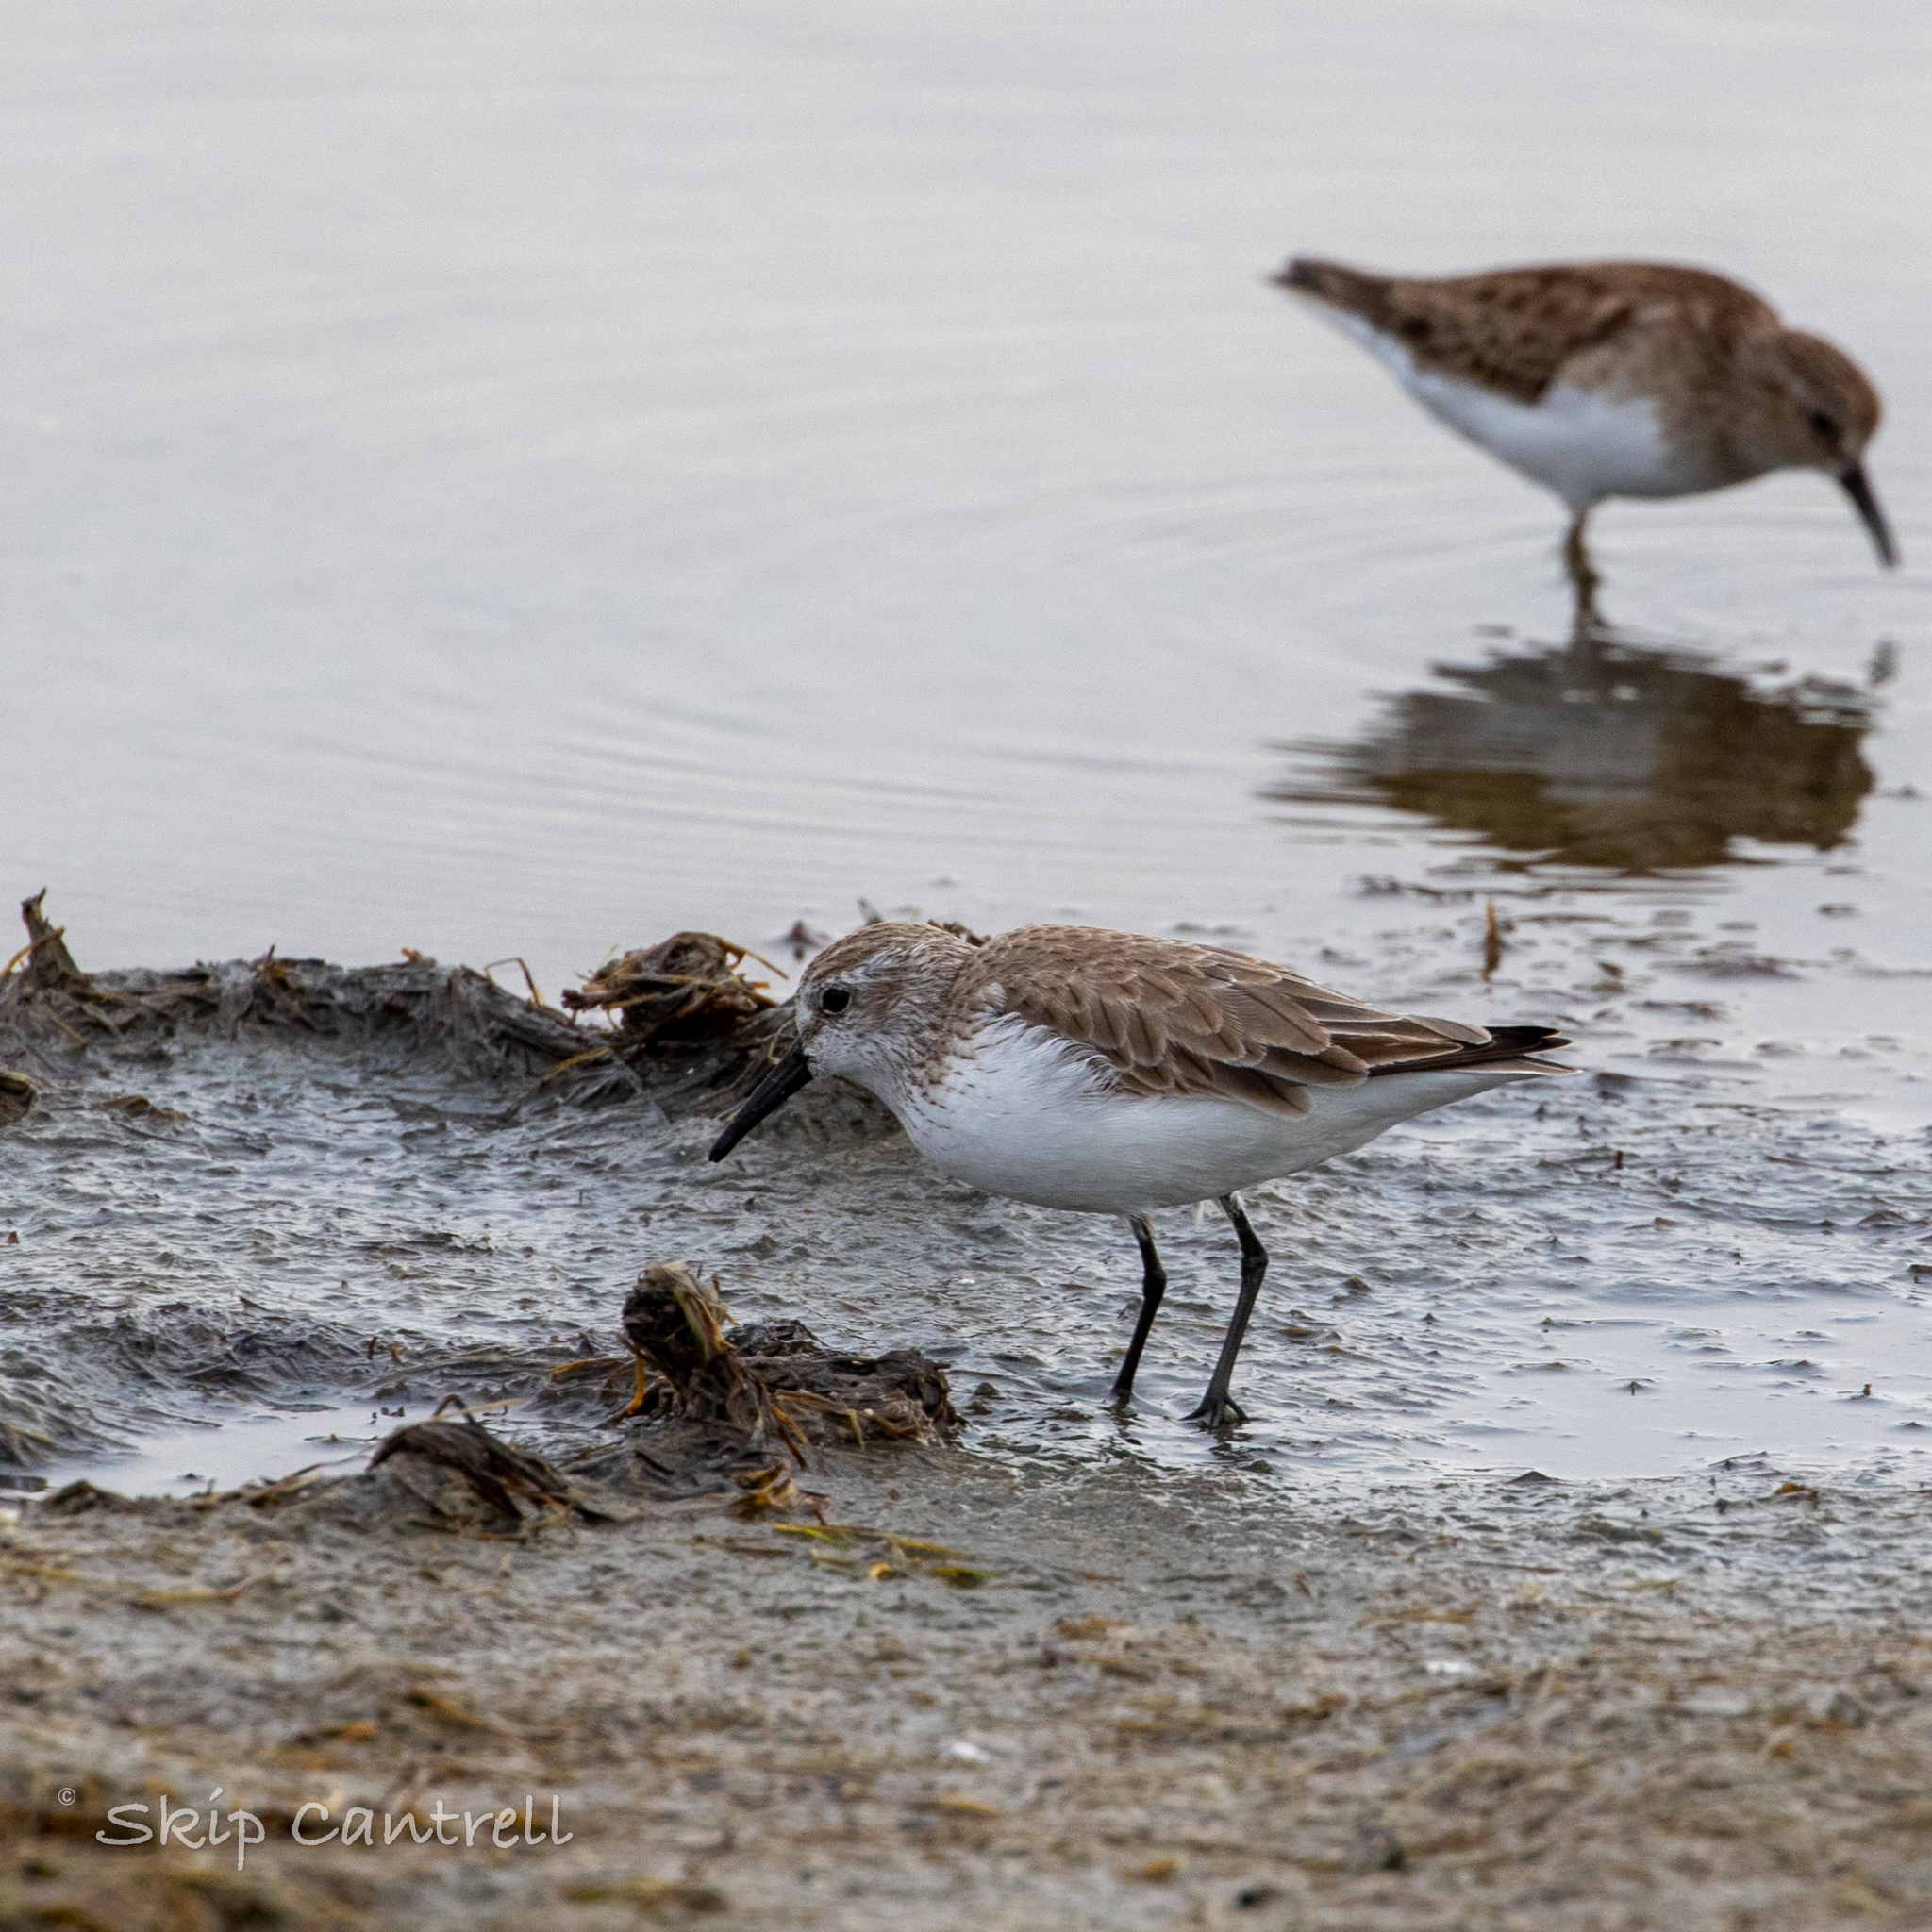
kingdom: Animalia
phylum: Chordata
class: Aves
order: Charadriiformes
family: Scolopacidae
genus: Calidris
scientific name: Calidris mauri
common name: Western sandpiper
